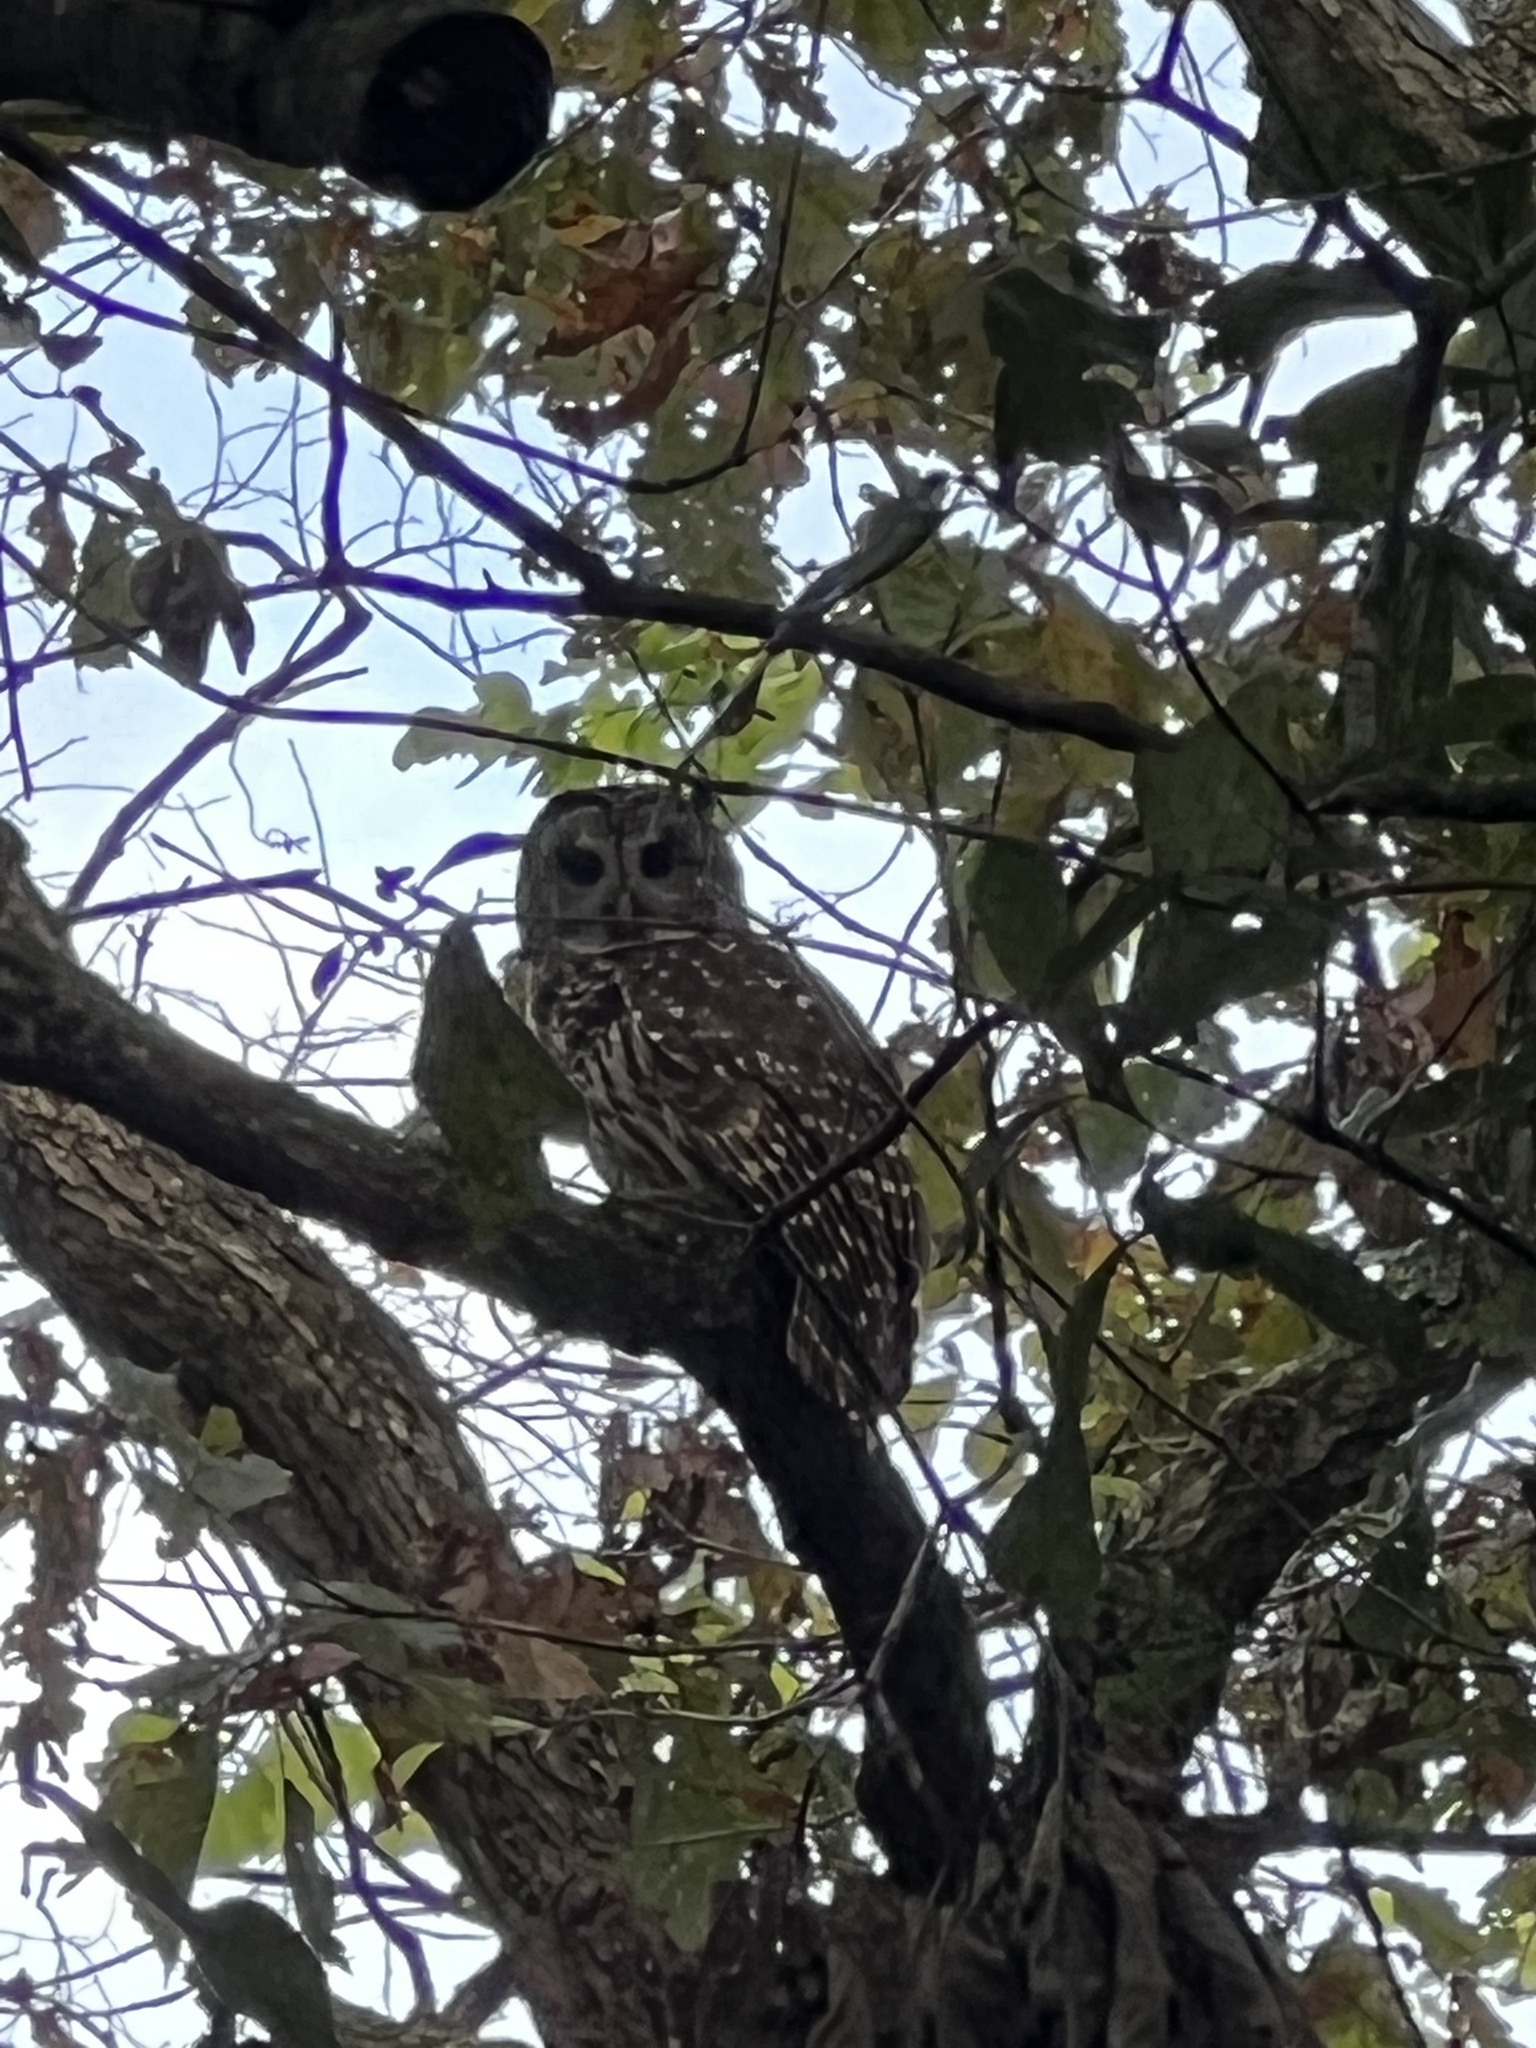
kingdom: Animalia
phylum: Chordata
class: Aves
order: Strigiformes
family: Strigidae
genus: Strix
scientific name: Strix varia
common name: Barred owl
